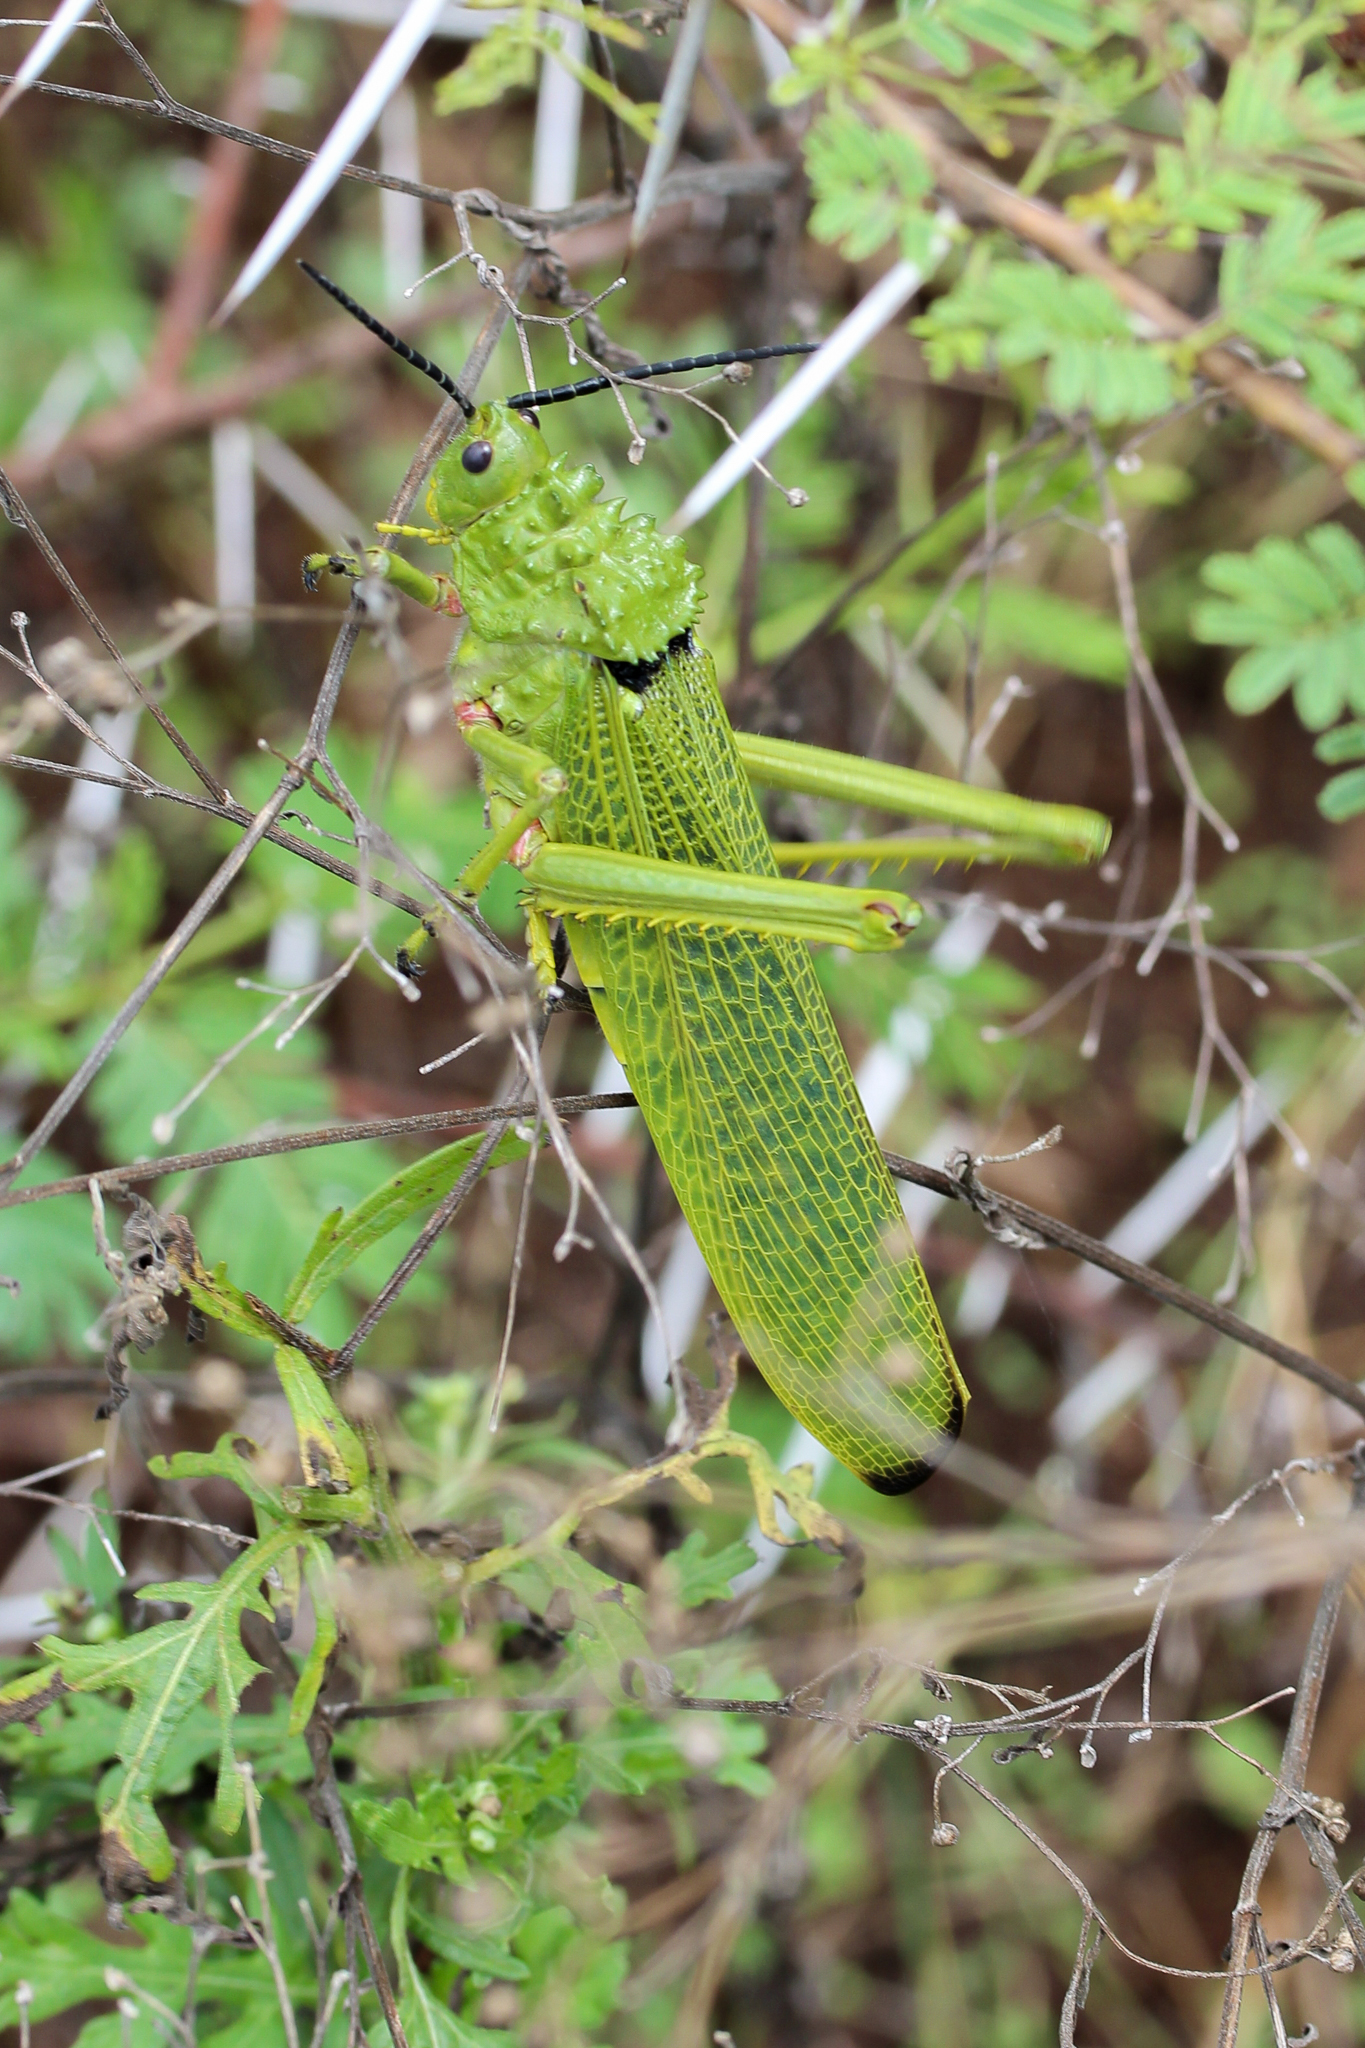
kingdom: Animalia
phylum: Arthropoda
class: Insecta
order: Orthoptera
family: Pyrgomorphidae
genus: Phymateus
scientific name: Phymateus viridipes
